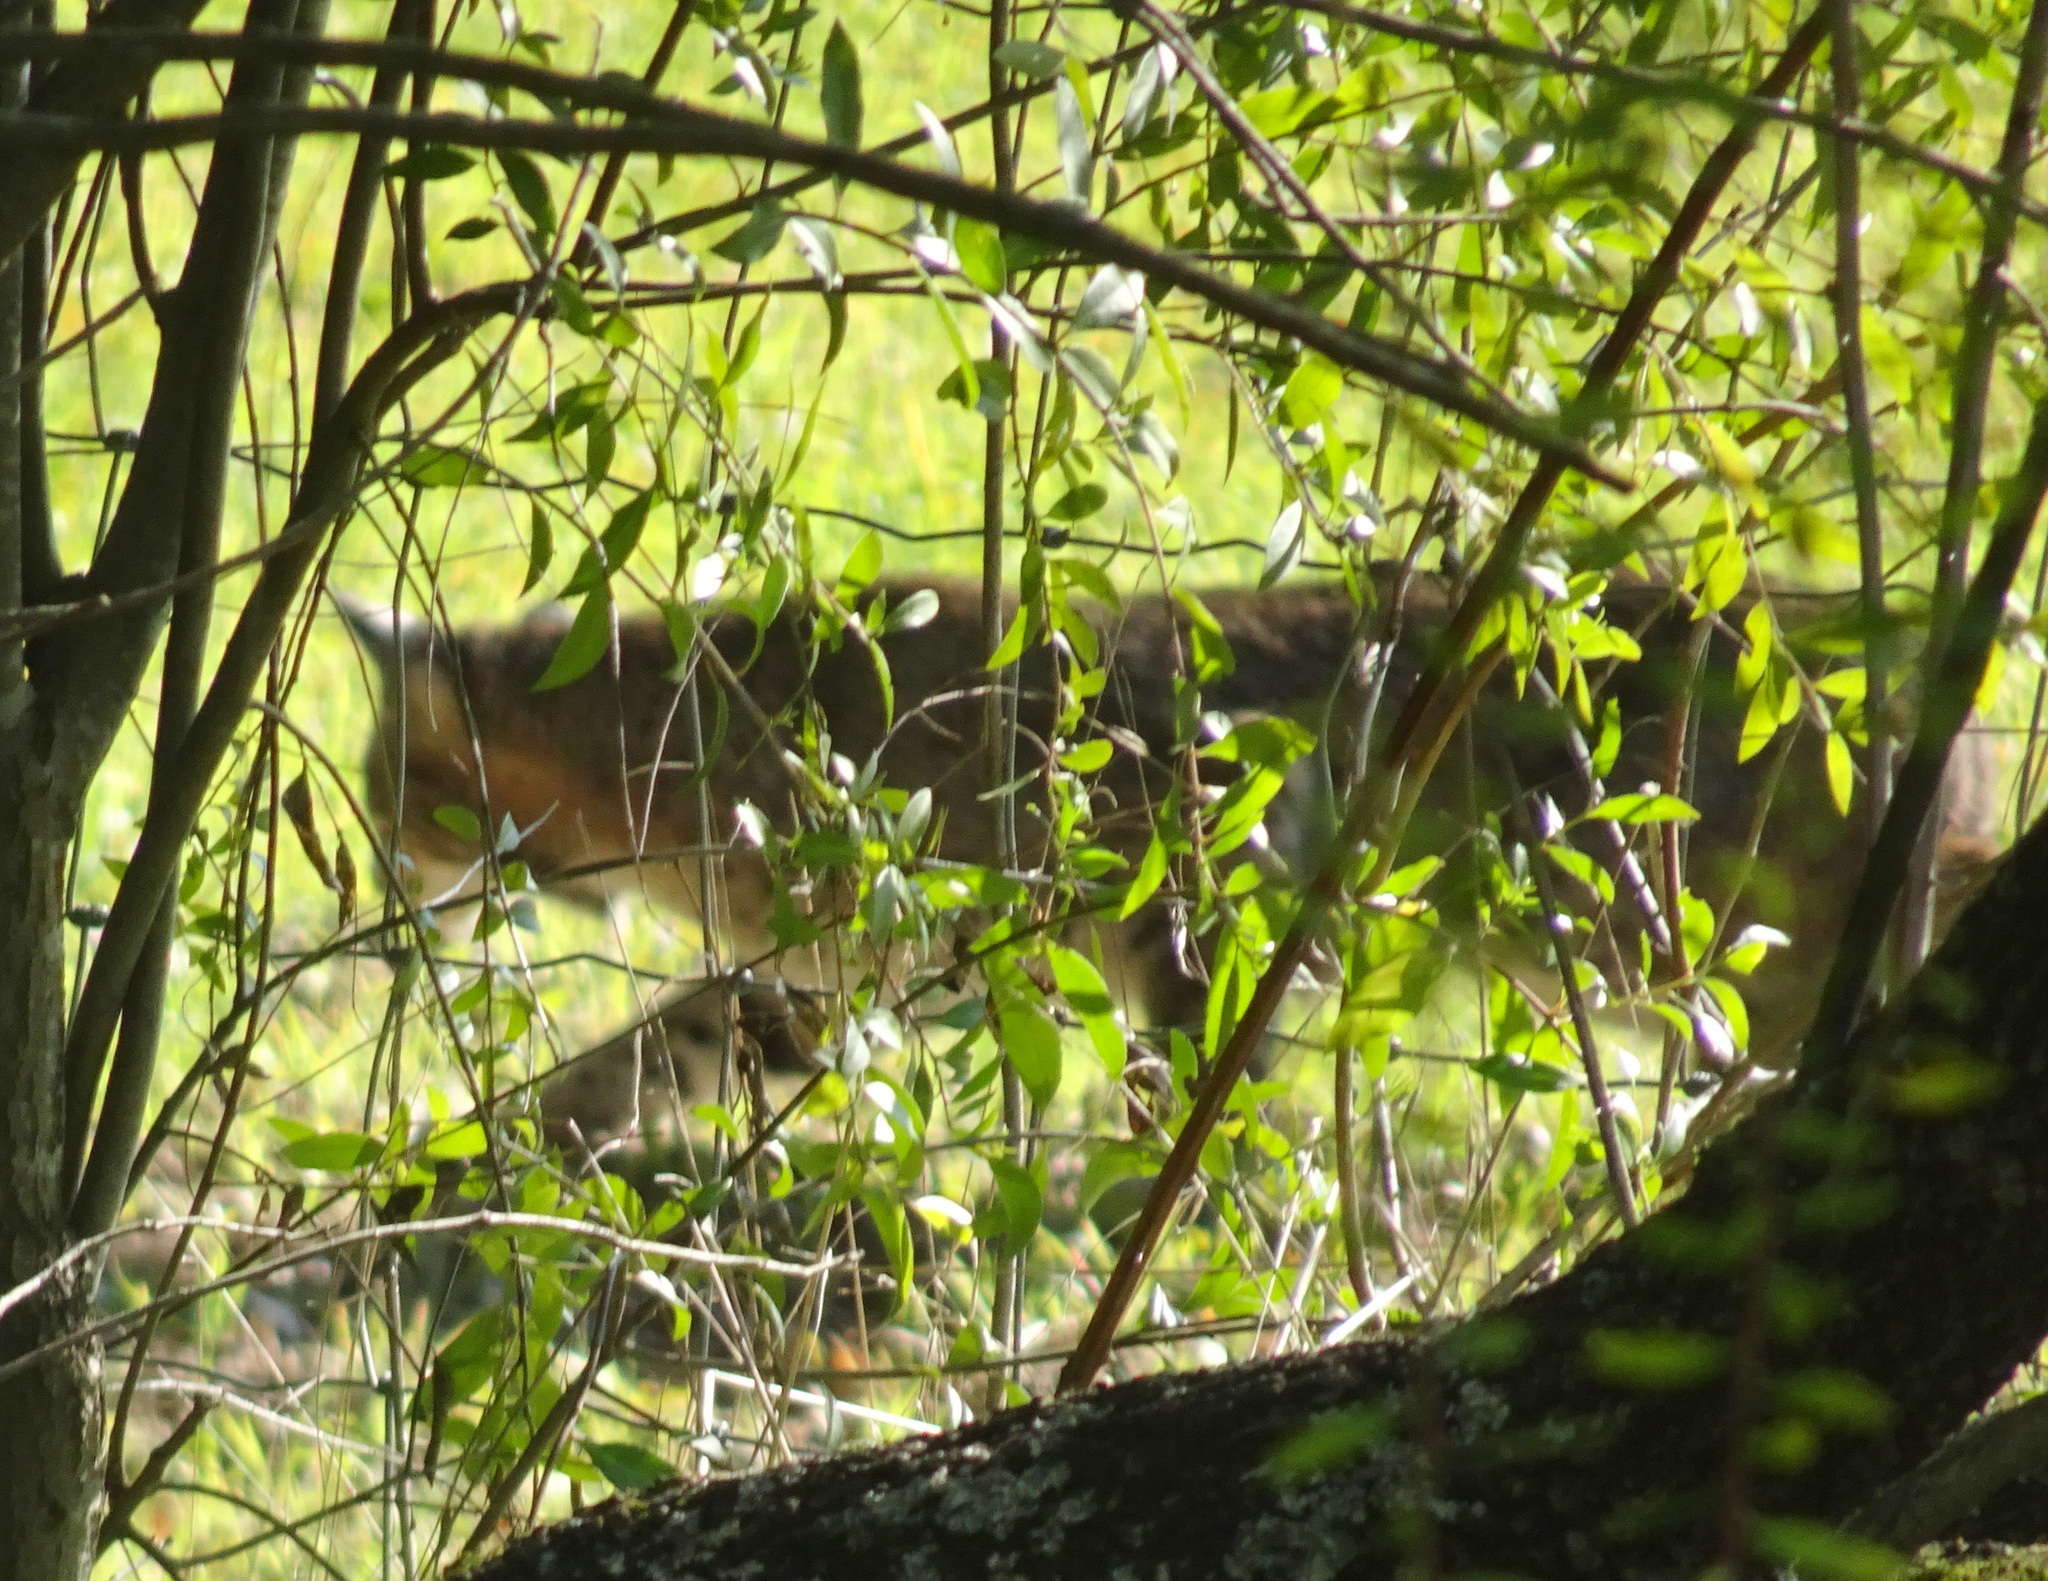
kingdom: Animalia
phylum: Chordata
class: Mammalia
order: Carnivora
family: Felidae
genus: Lynx
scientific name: Lynx rufus
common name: Bobcat
